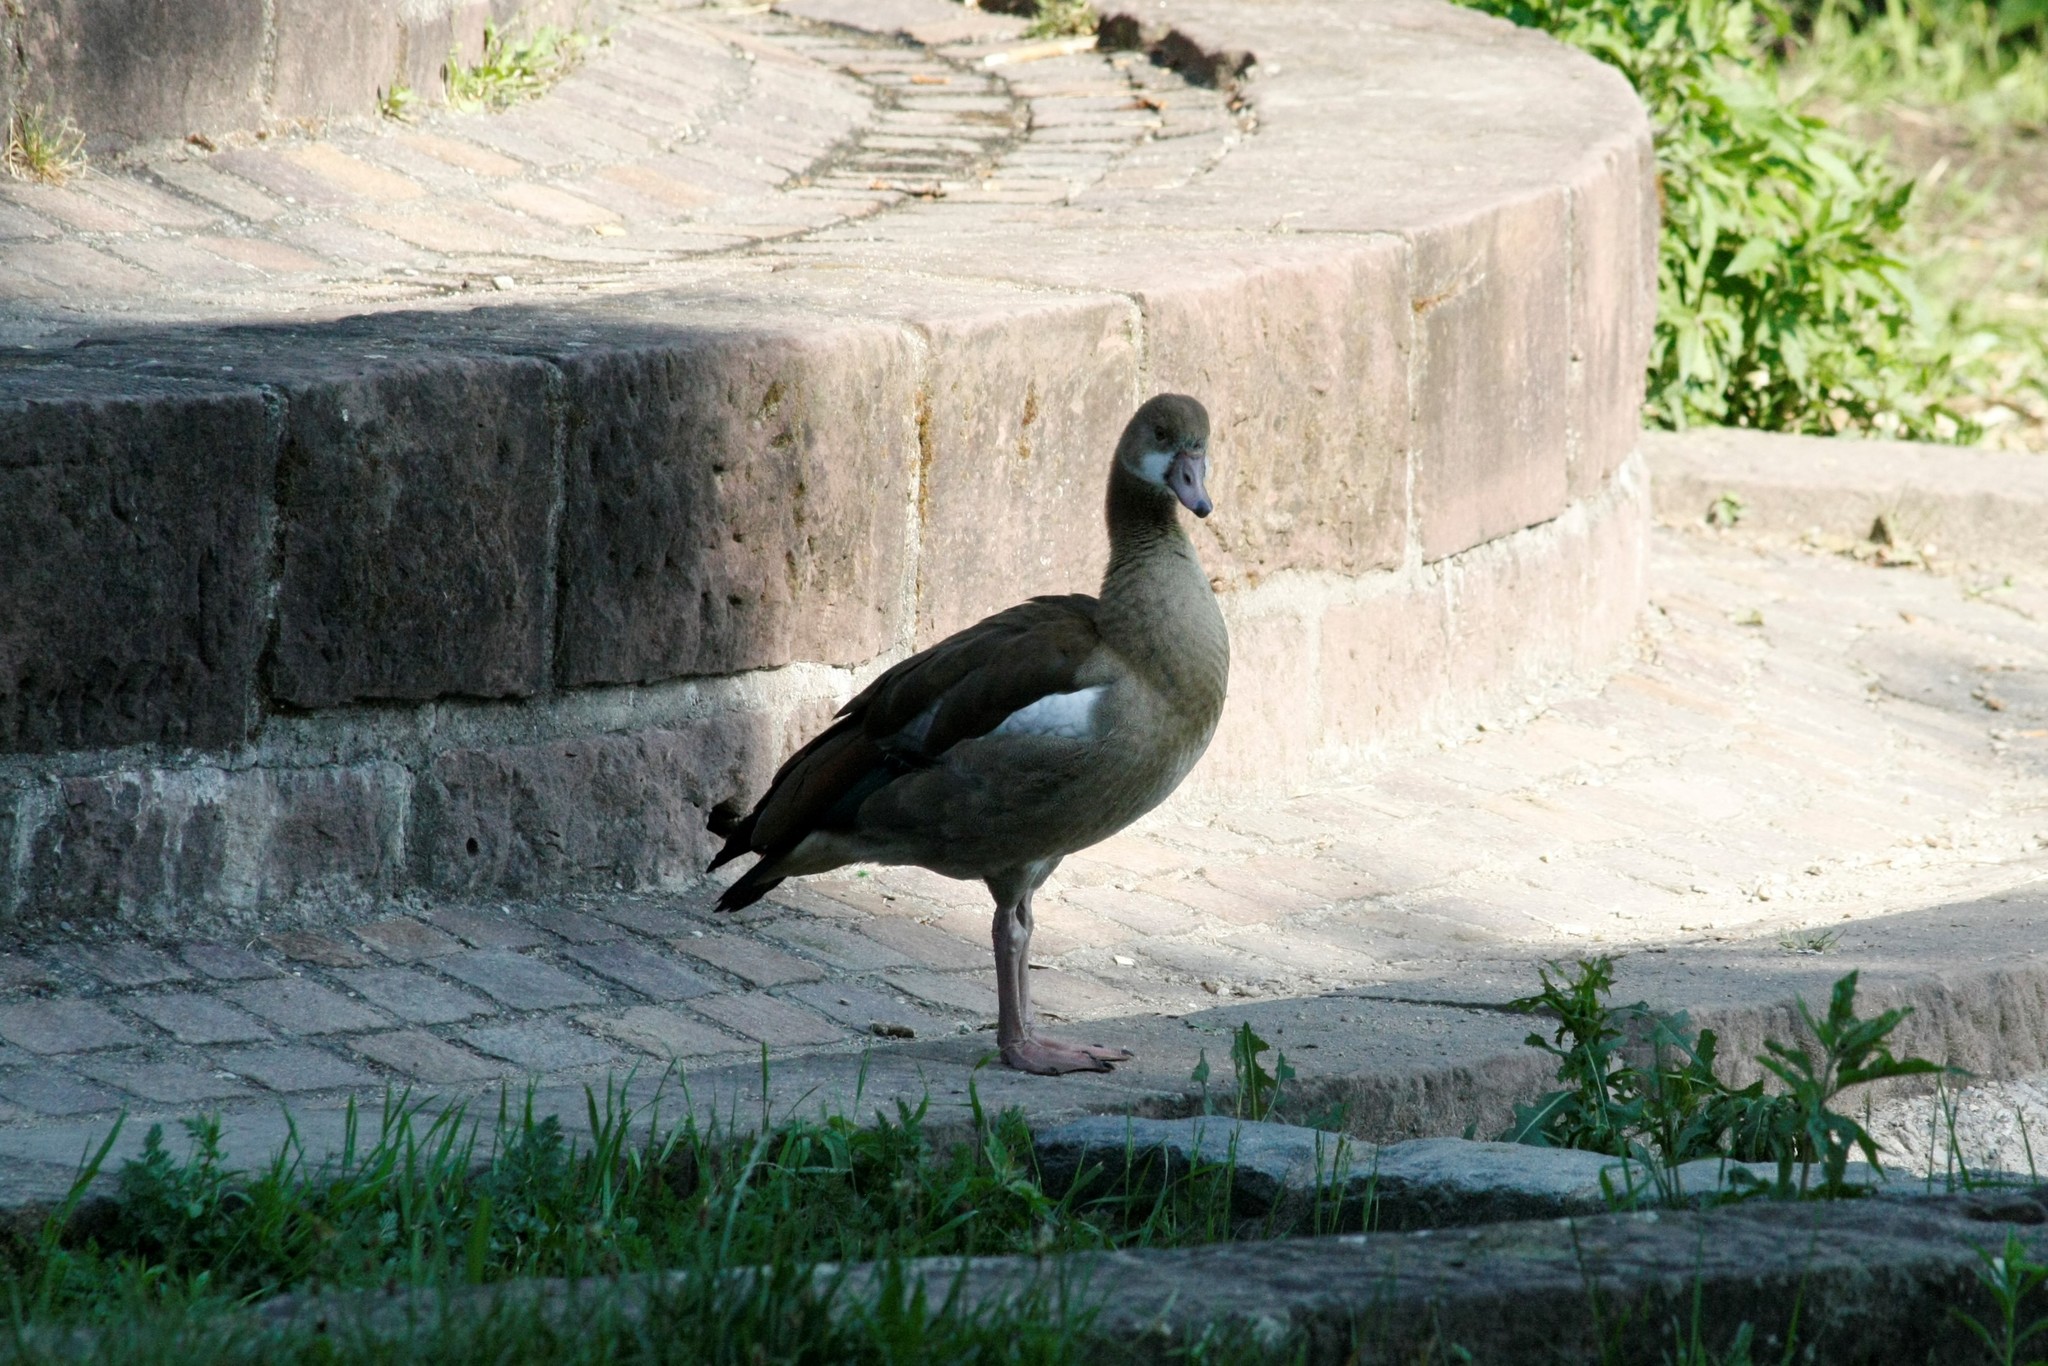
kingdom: Animalia
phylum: Chordata
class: Aves
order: Anseriformes
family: Anatidae
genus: Alopochen
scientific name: Alopochen aegyptiaca
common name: Egyptian goose
